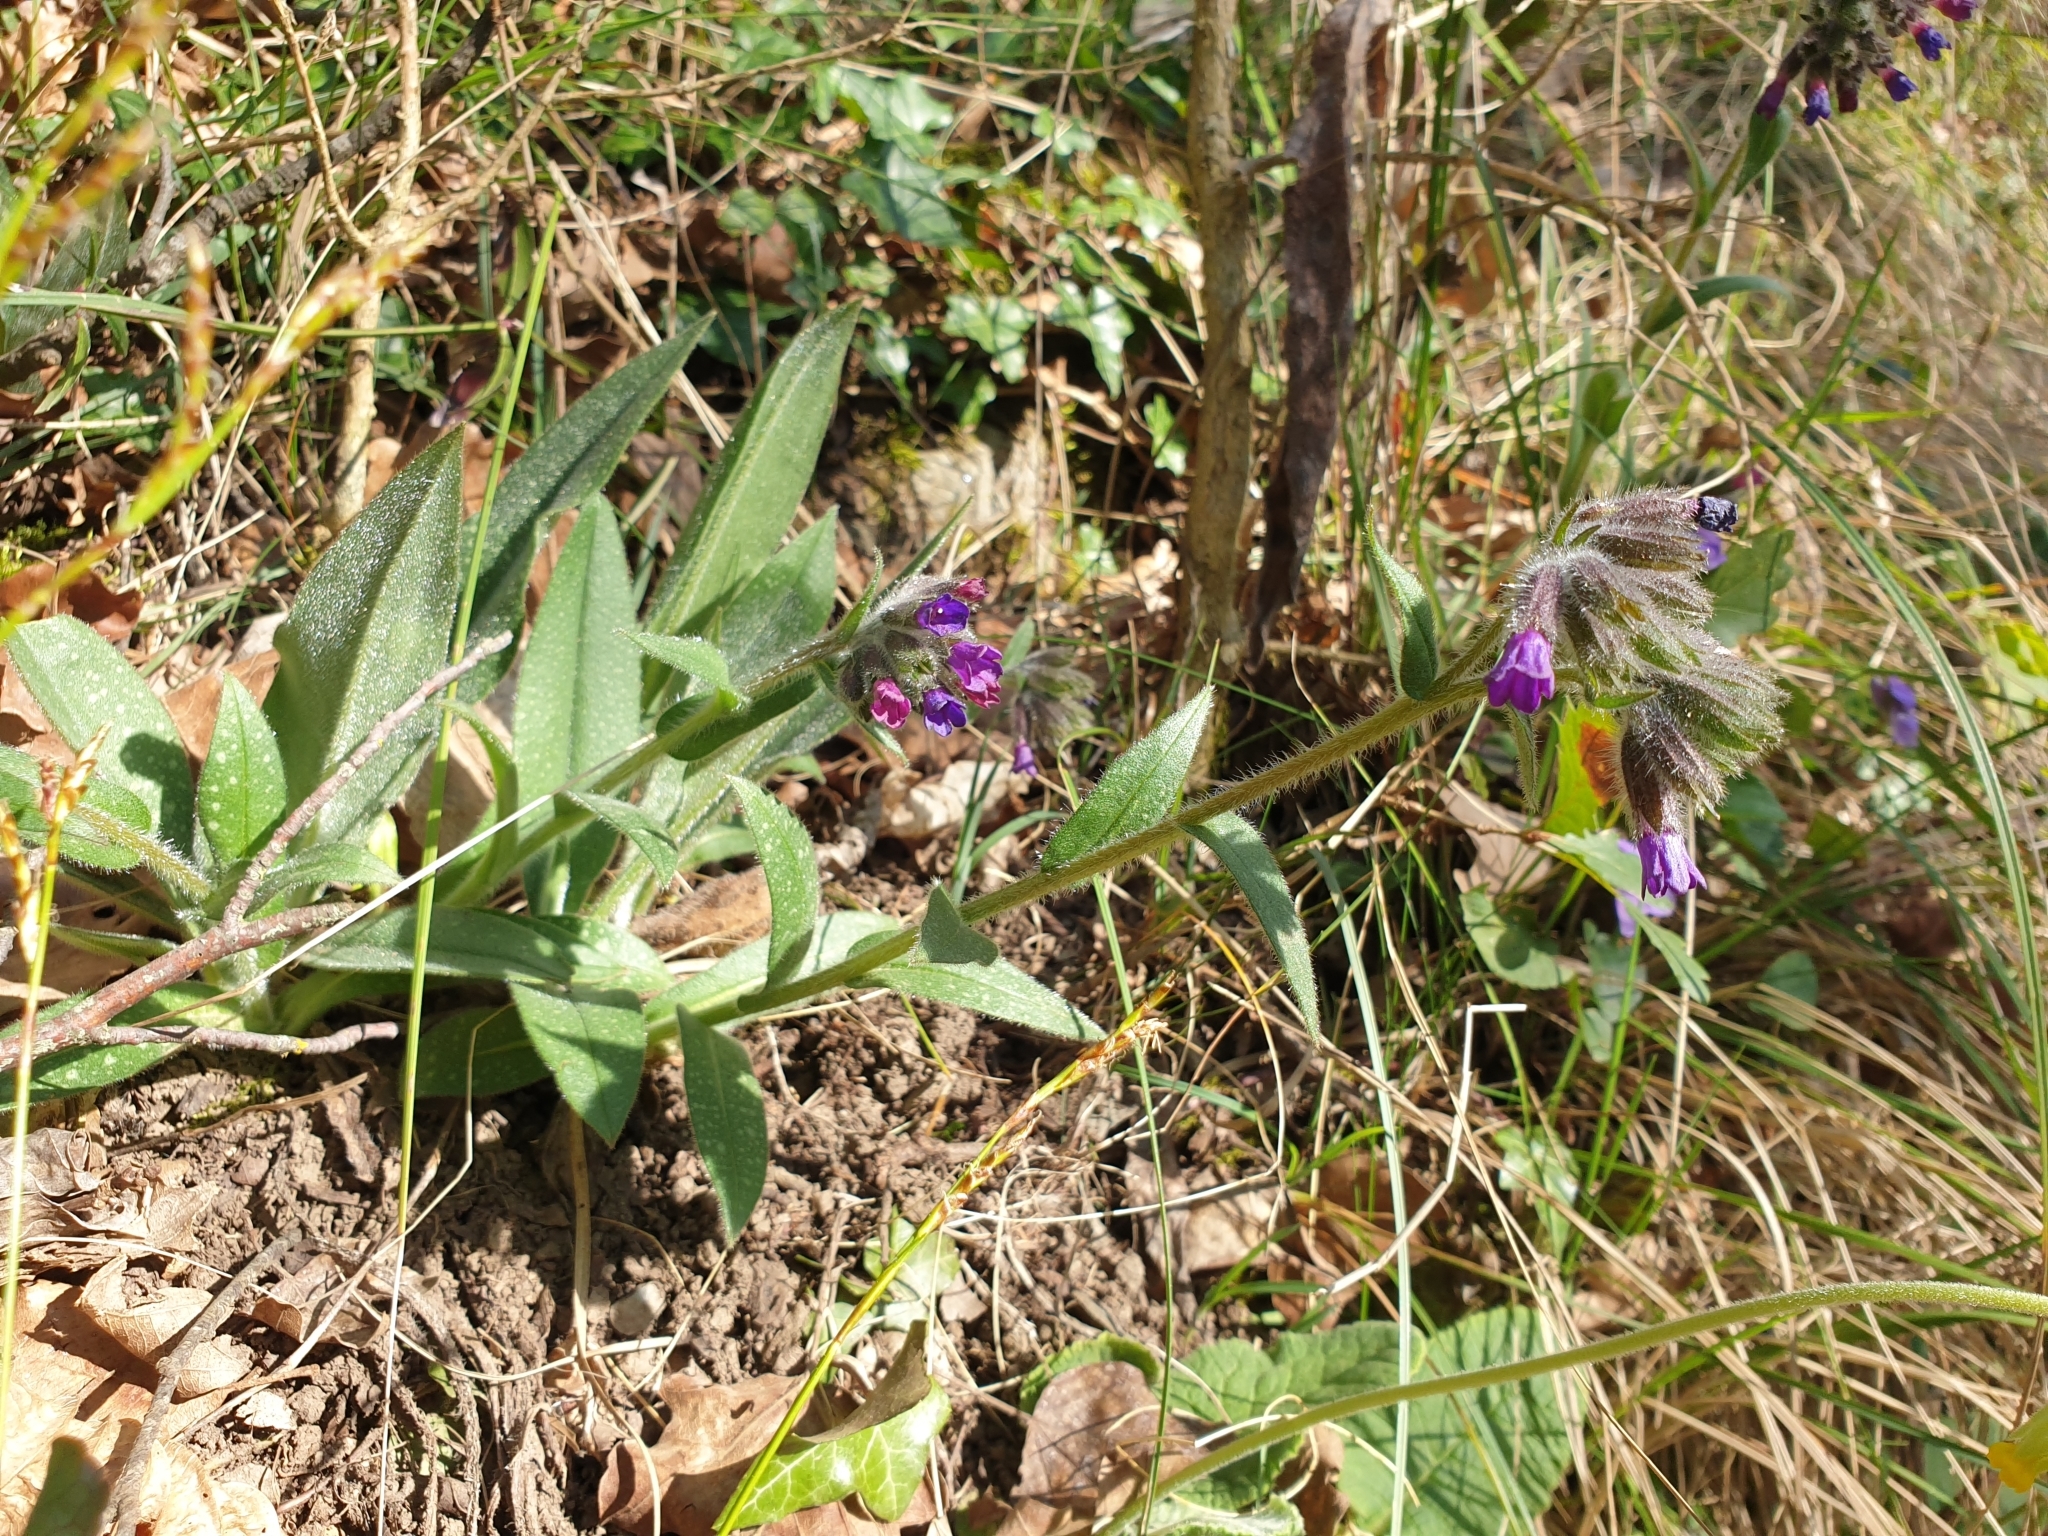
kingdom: Plantae
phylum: Tracheophyta
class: Magnoliopsida
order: Boraginales
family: Boraginaceae
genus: Pulmonaria
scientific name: Pulmonaria longifolia
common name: Narrow-leaved lungwort
